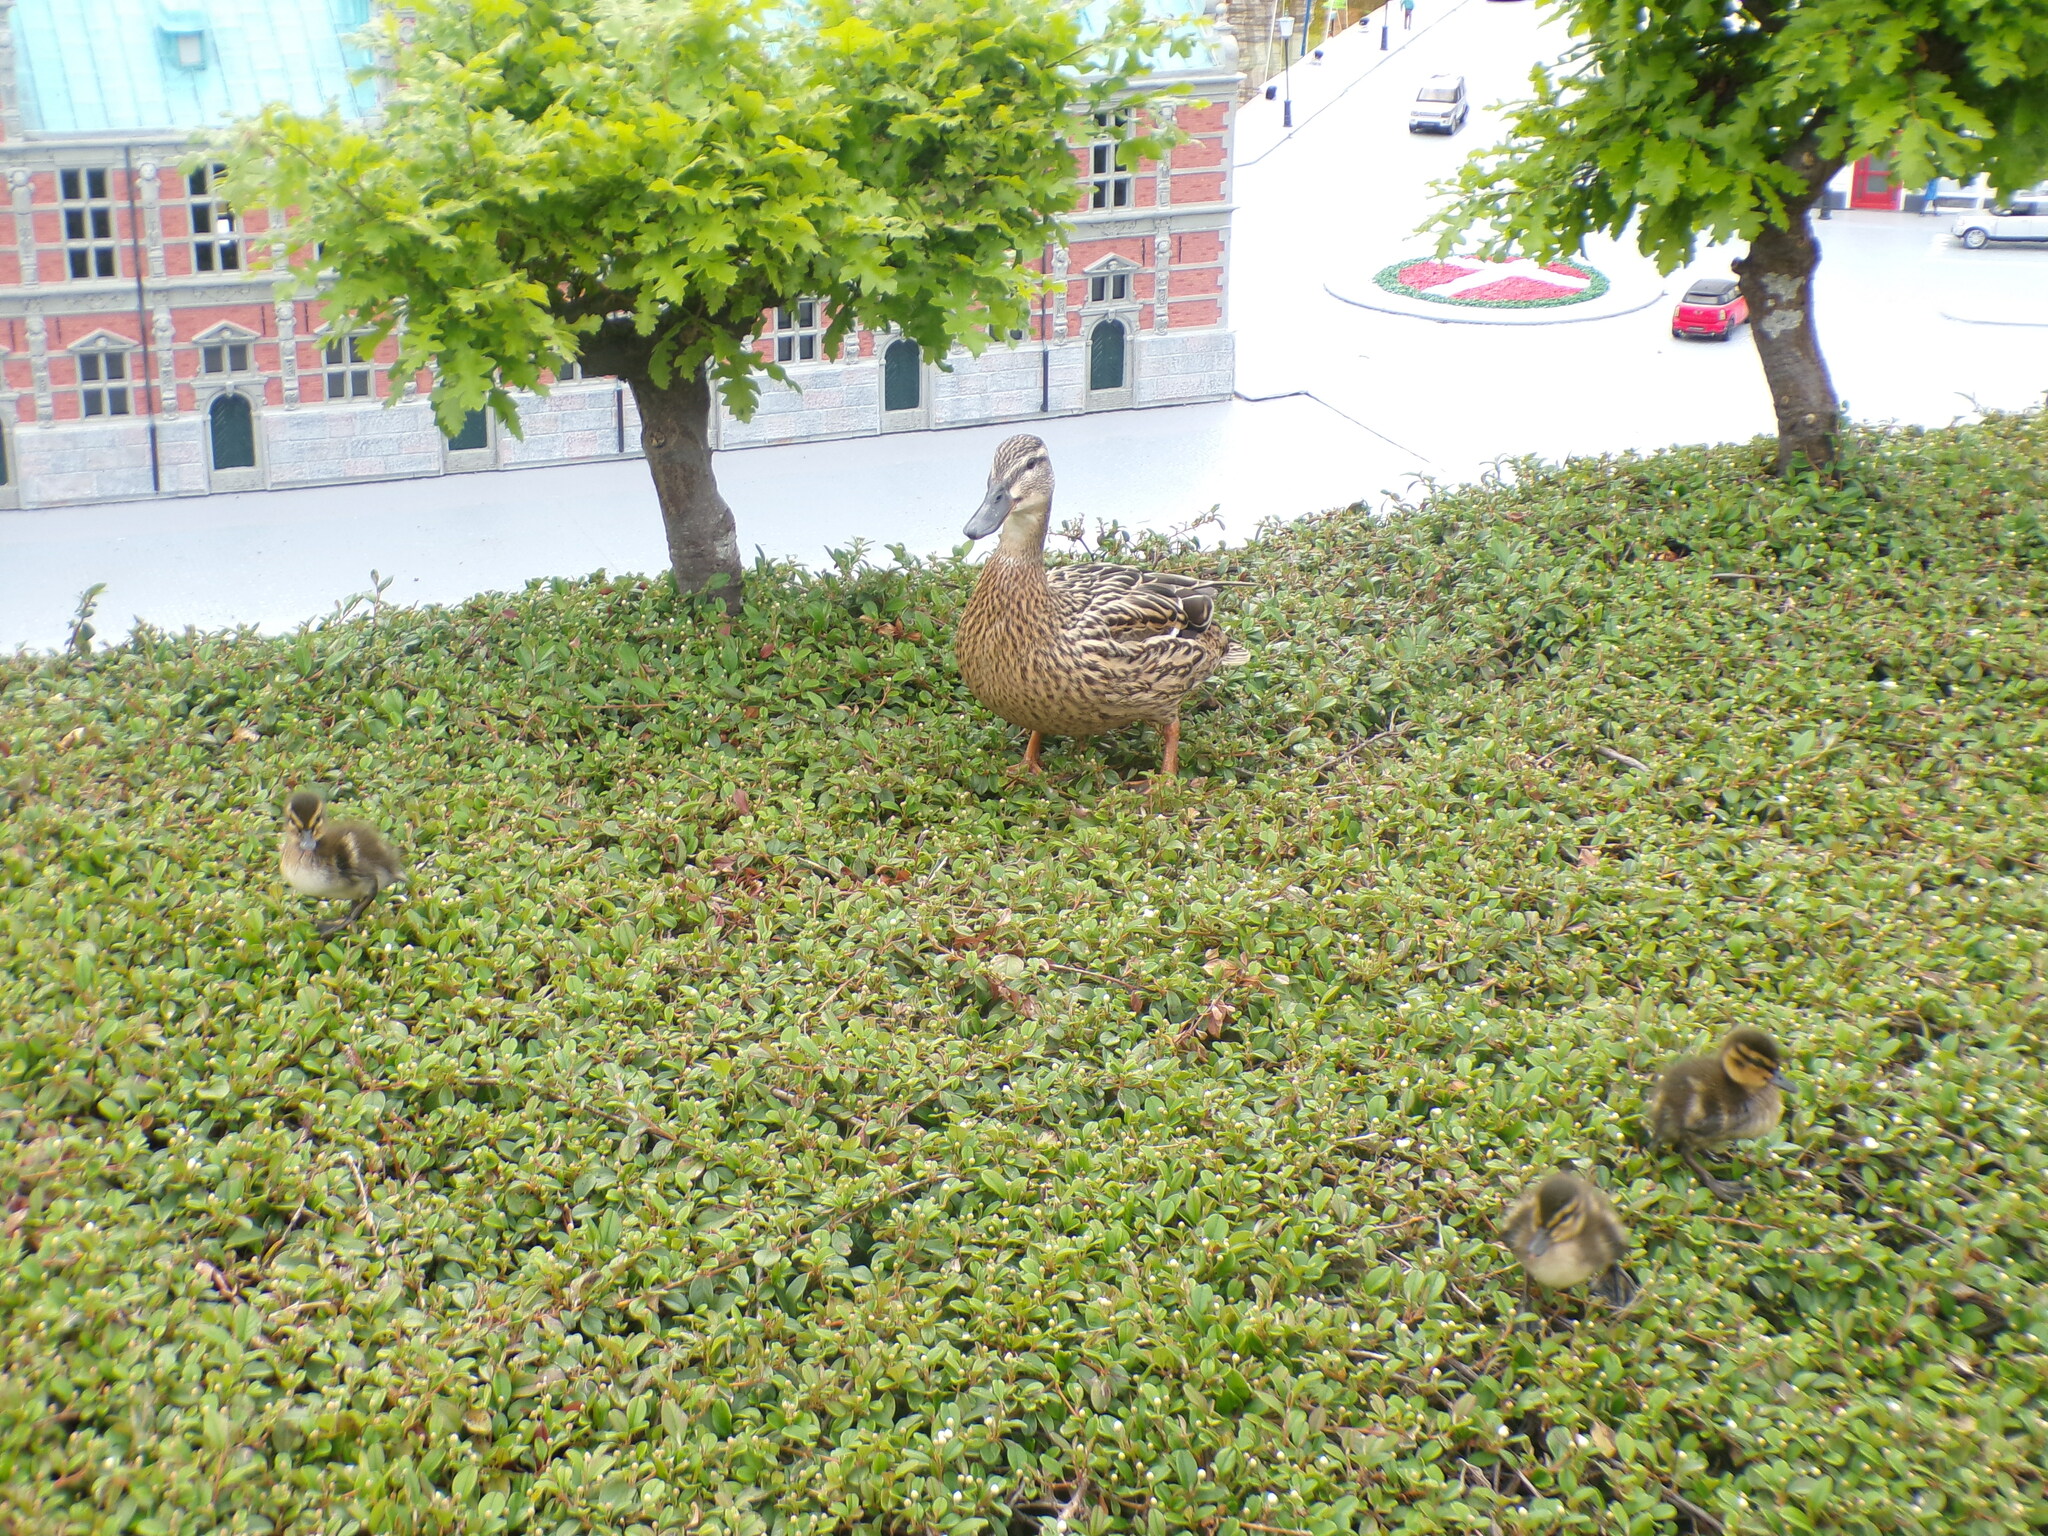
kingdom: Animalia
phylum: Chordata
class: Aves
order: Anseriformes
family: Anatidae
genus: Anas
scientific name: Anas platyrhynchos
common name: Mallard
